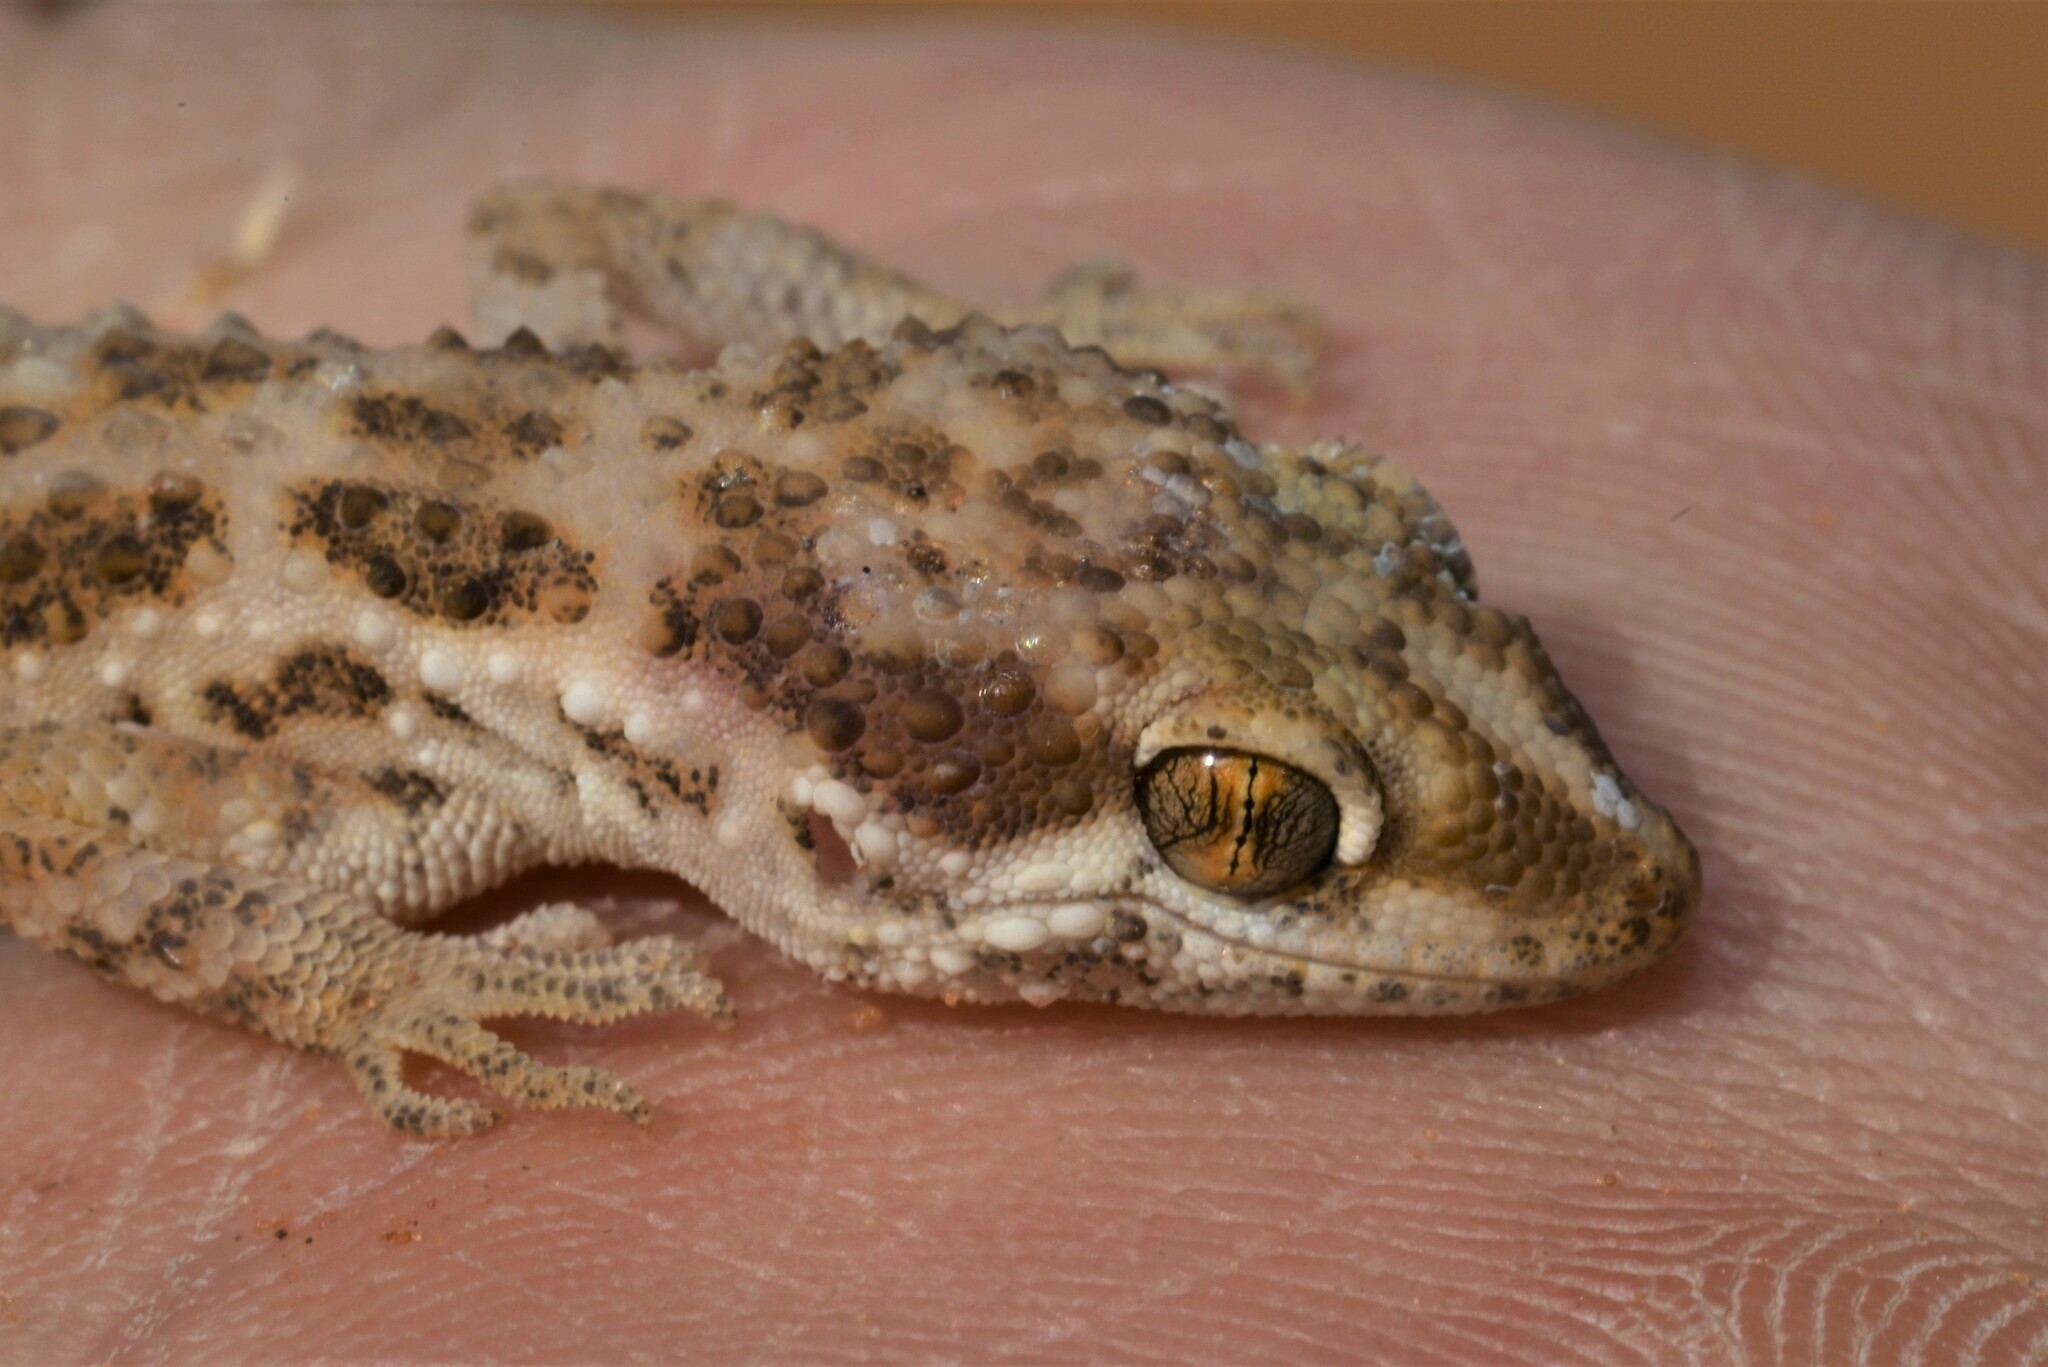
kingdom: Animalia
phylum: Chordata
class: Squamata
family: Gekkonidae
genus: Bunopus
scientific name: Bunopus tuberculatus
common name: Southern tuberculated gecko
